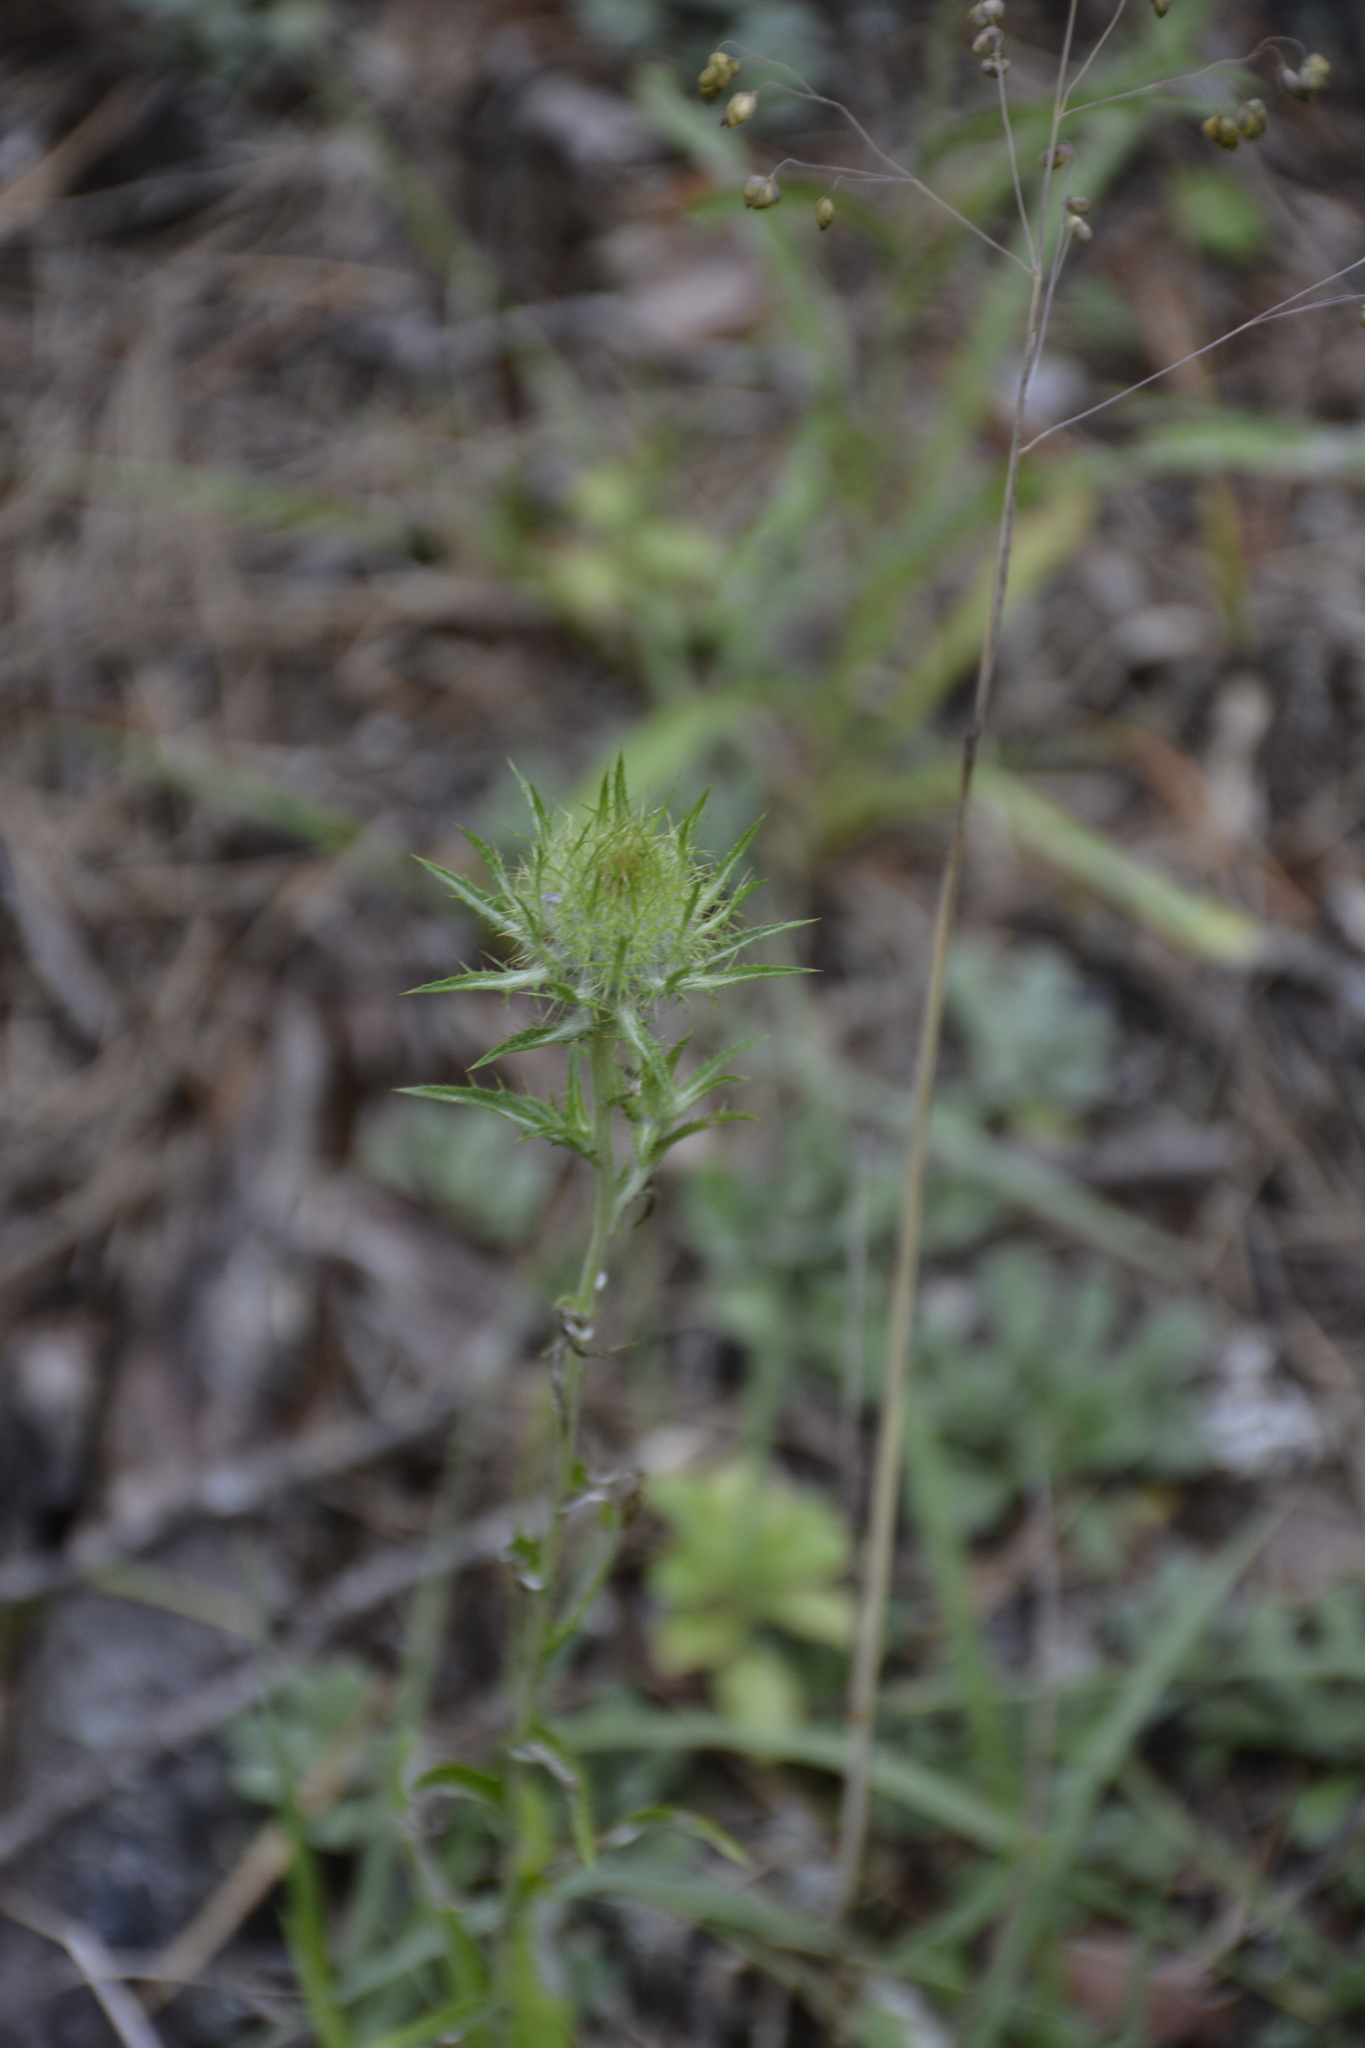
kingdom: Plantae
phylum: Tracheophyta
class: Magnoliopsida
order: Asterales
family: Asteraceae
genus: Carlina
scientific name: Carlina biebersteinii
